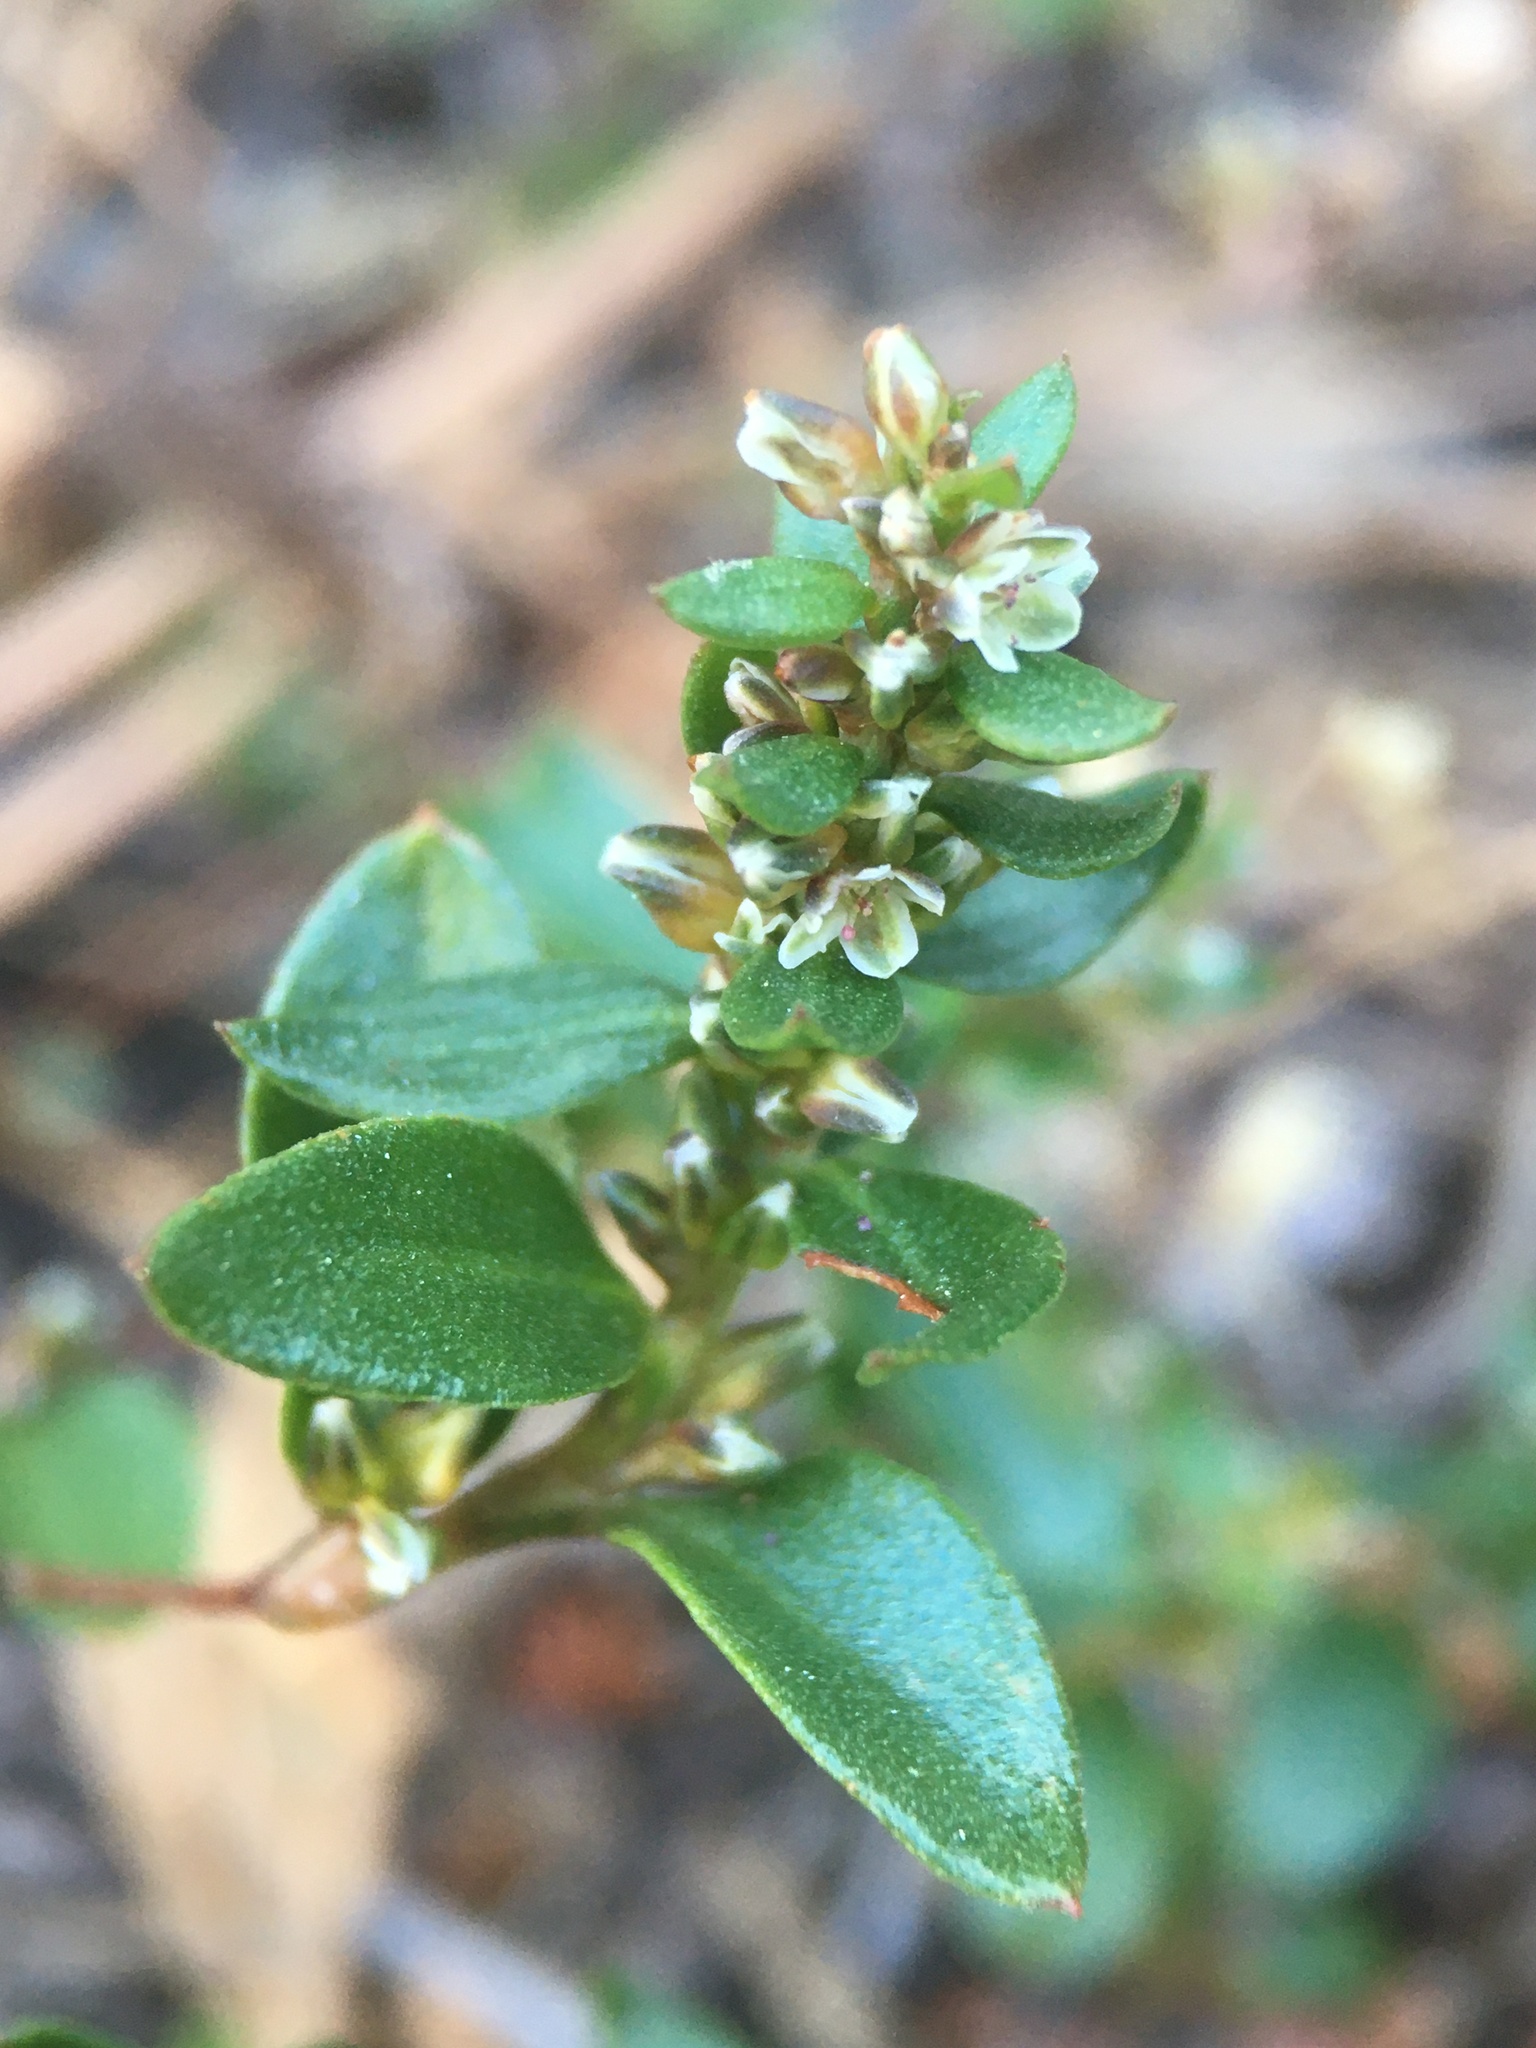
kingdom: Plantae
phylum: Tracheophyta
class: Magnoliopsida
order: Caryophyllales
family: Polygonaceae
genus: Polygonum
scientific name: Polygonum minimum
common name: Broad-leaved knotweed
